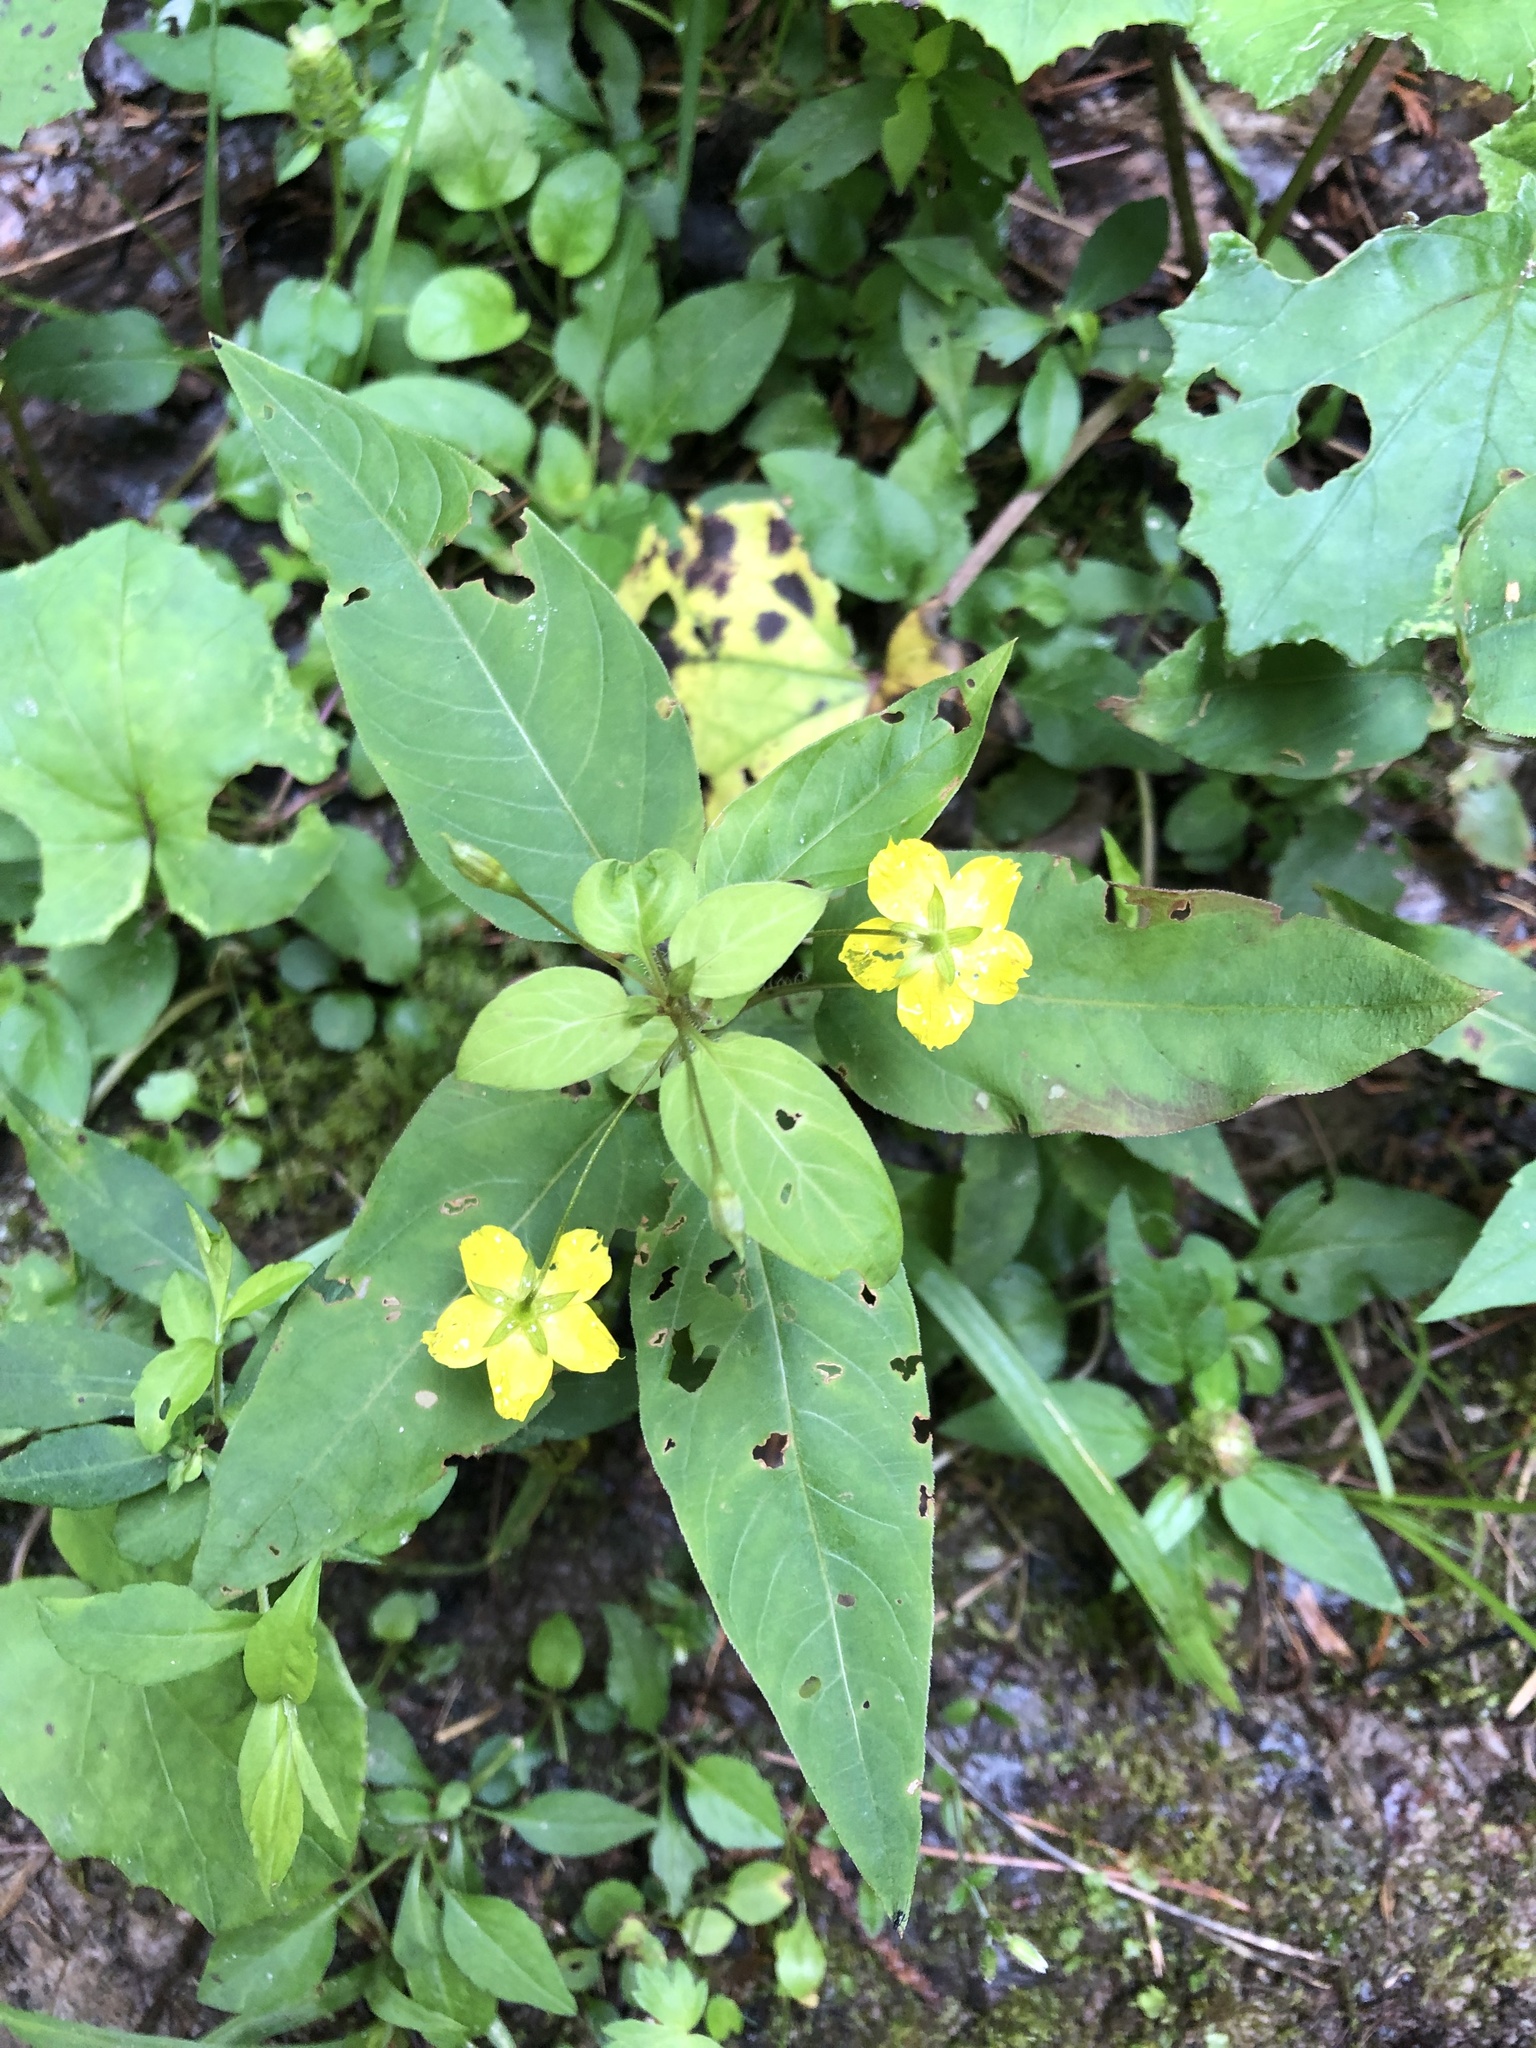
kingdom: Plantae
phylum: Tracheophyta
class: Magnoliopsida
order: Ericales
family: Primulaceae
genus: Lysimachia
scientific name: Lysimachia ciliata
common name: Fringed loosestrife
